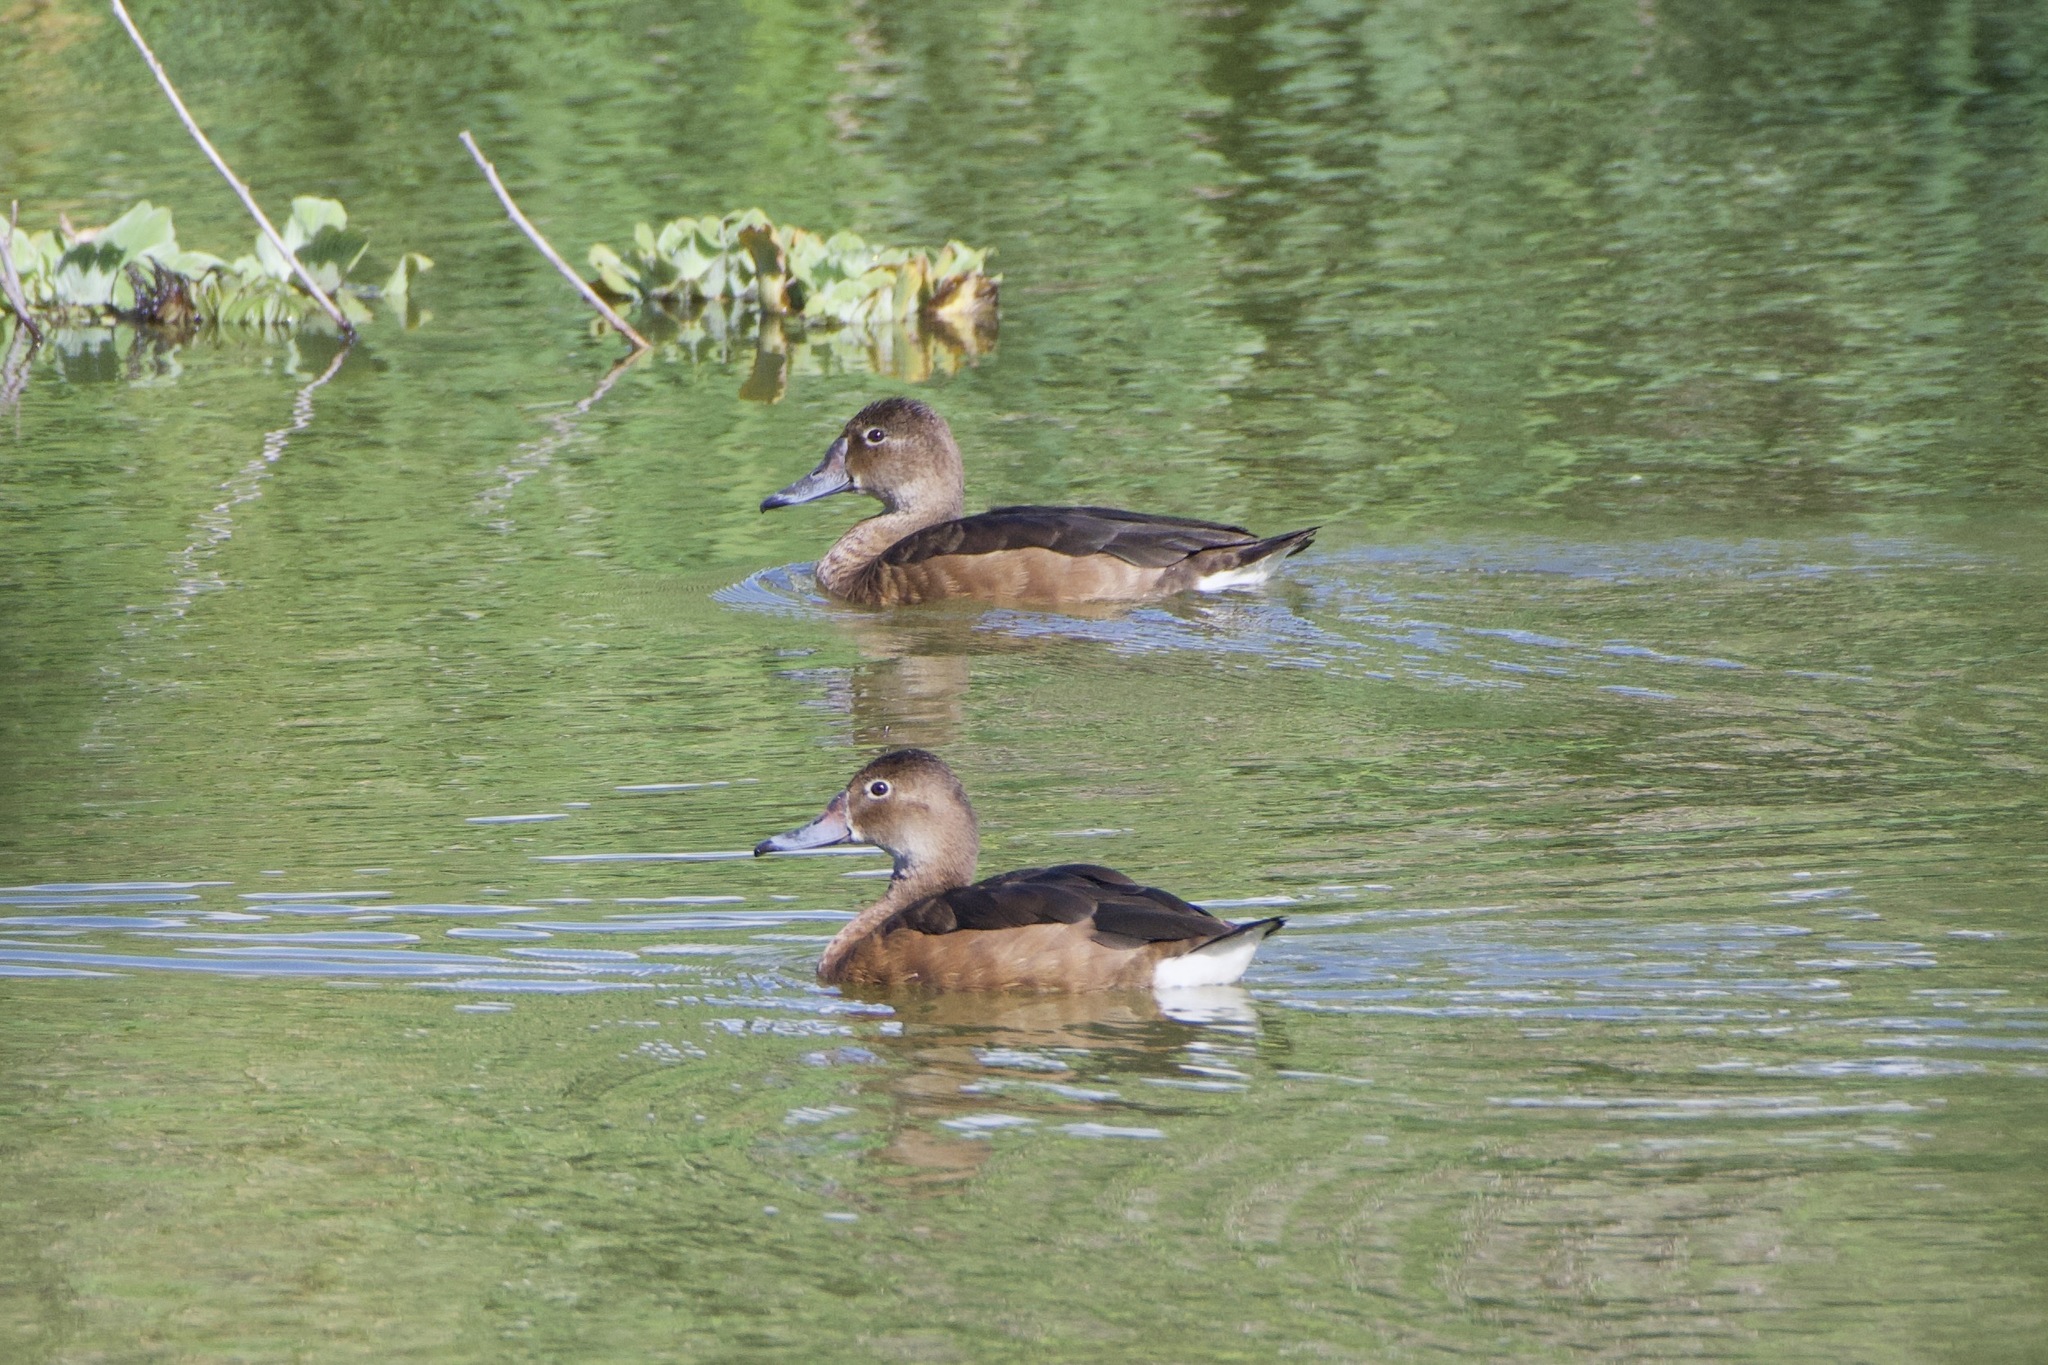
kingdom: Animalia
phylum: Chordata
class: Aves
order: Anseriformes
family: Anatidae
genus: Netta
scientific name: Netta peposaca
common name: Rosy-billed pochard
